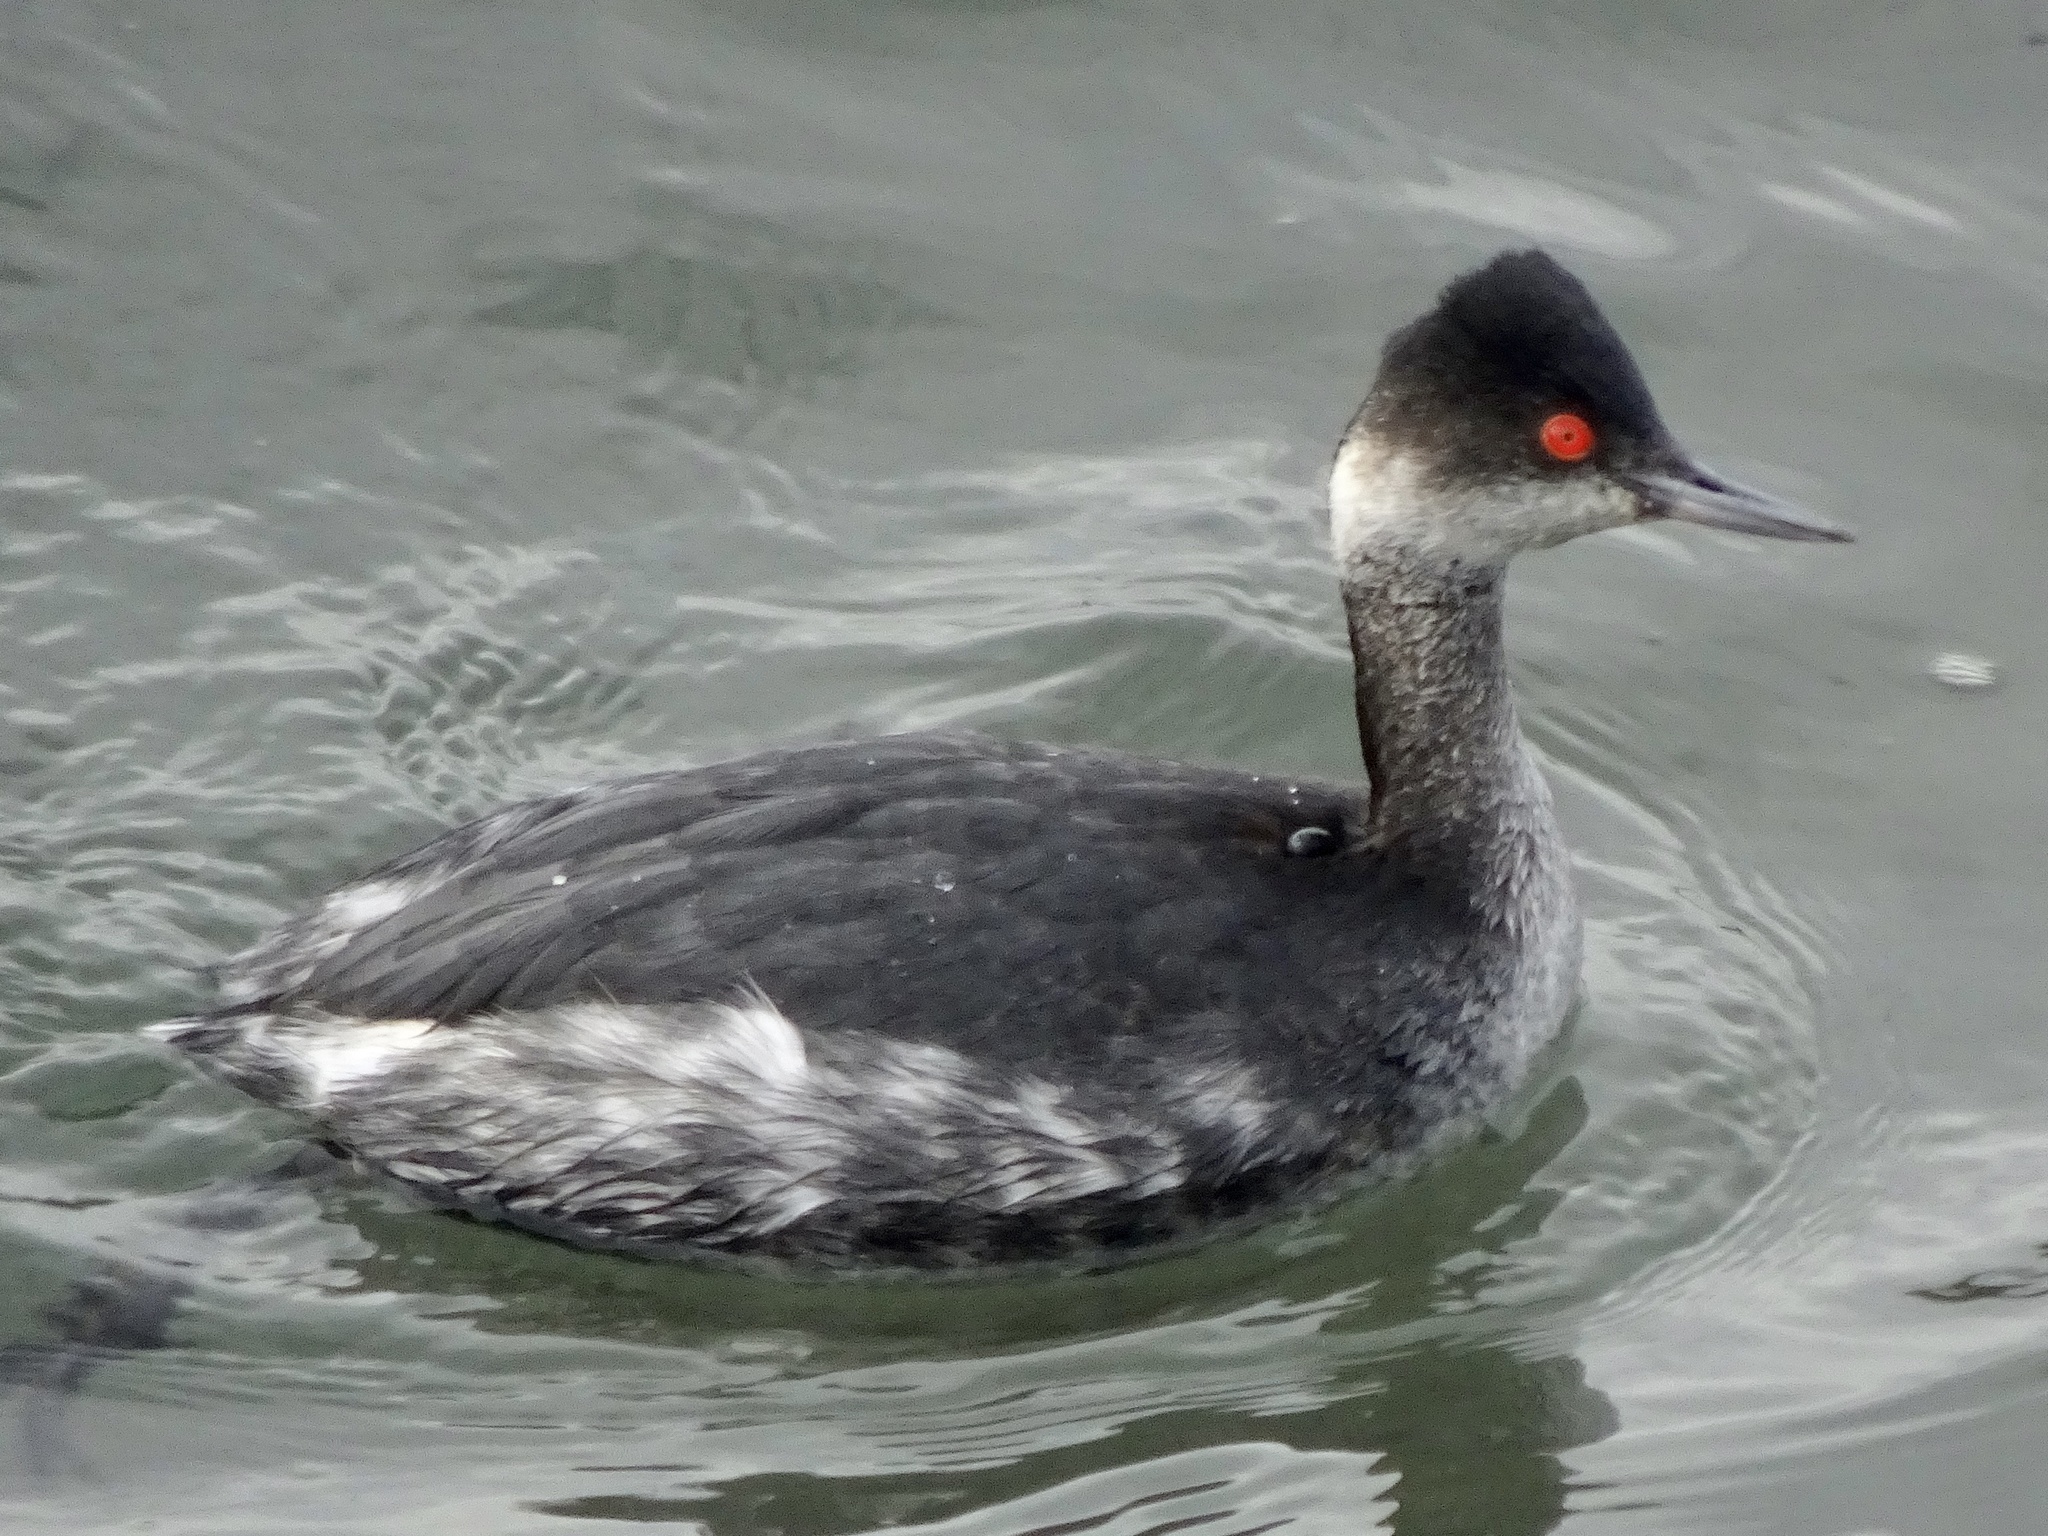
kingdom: Animalia
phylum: Chordata
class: Aves
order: Podicipediformes
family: Podicipedidae
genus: Podiceps
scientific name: Podiceps nigricollis
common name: Black-necked grebe
